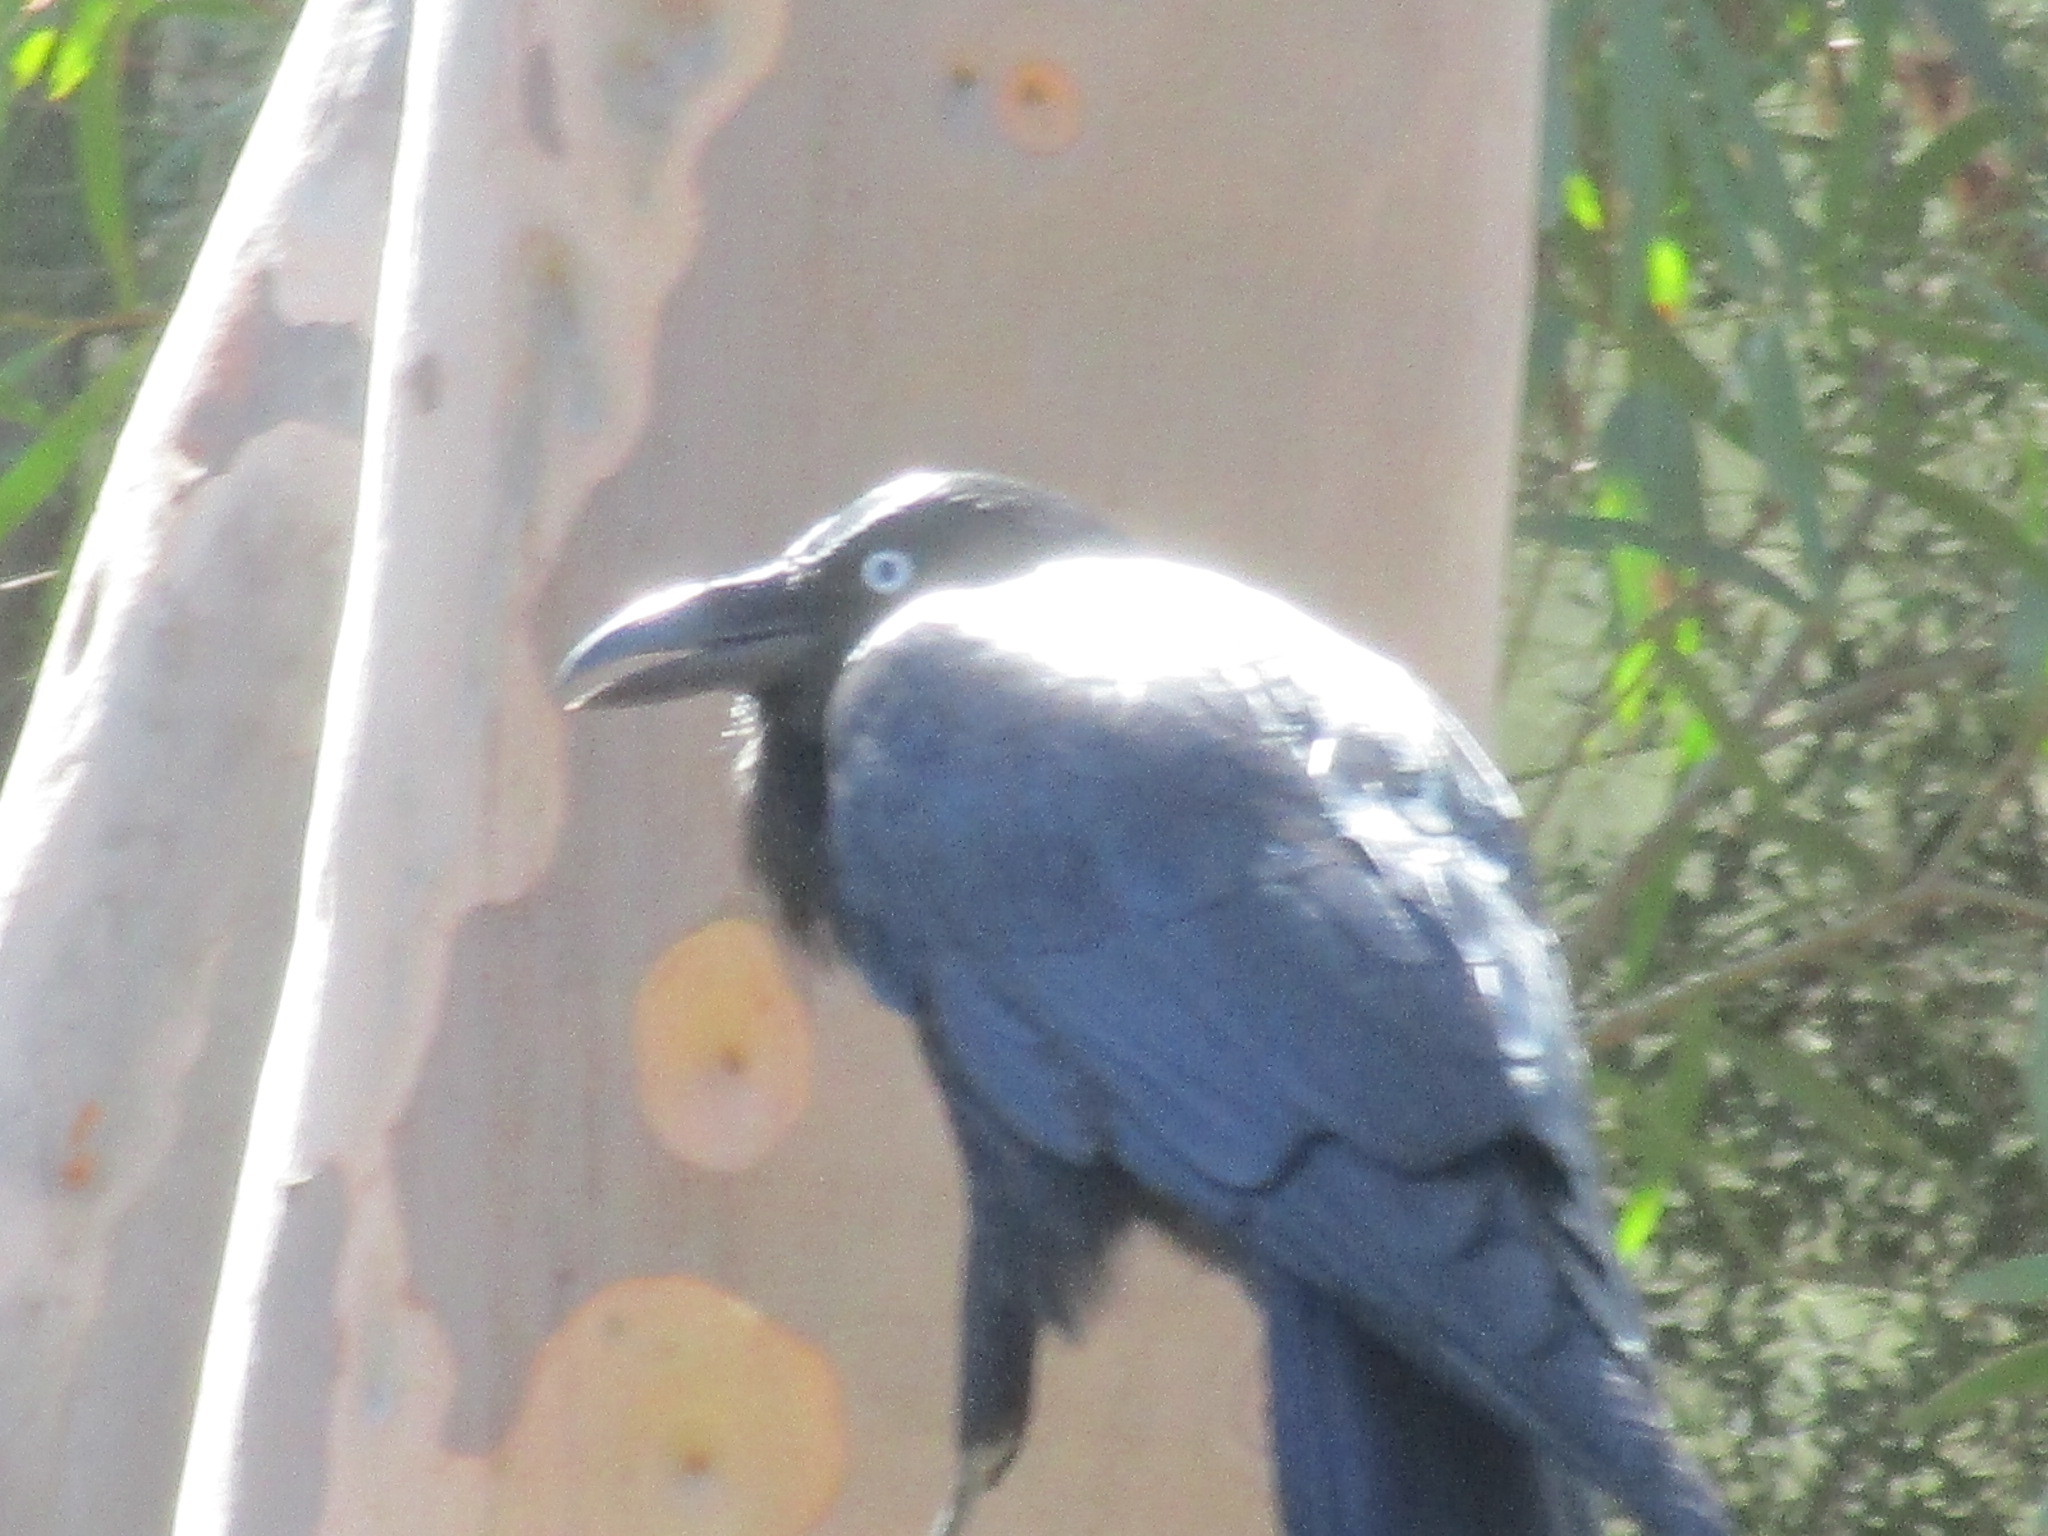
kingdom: Animalia
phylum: Chordata
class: Aves
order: Passeriformes
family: Corvidae
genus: Corvus
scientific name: Corvus coronoides
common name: Australian raven
